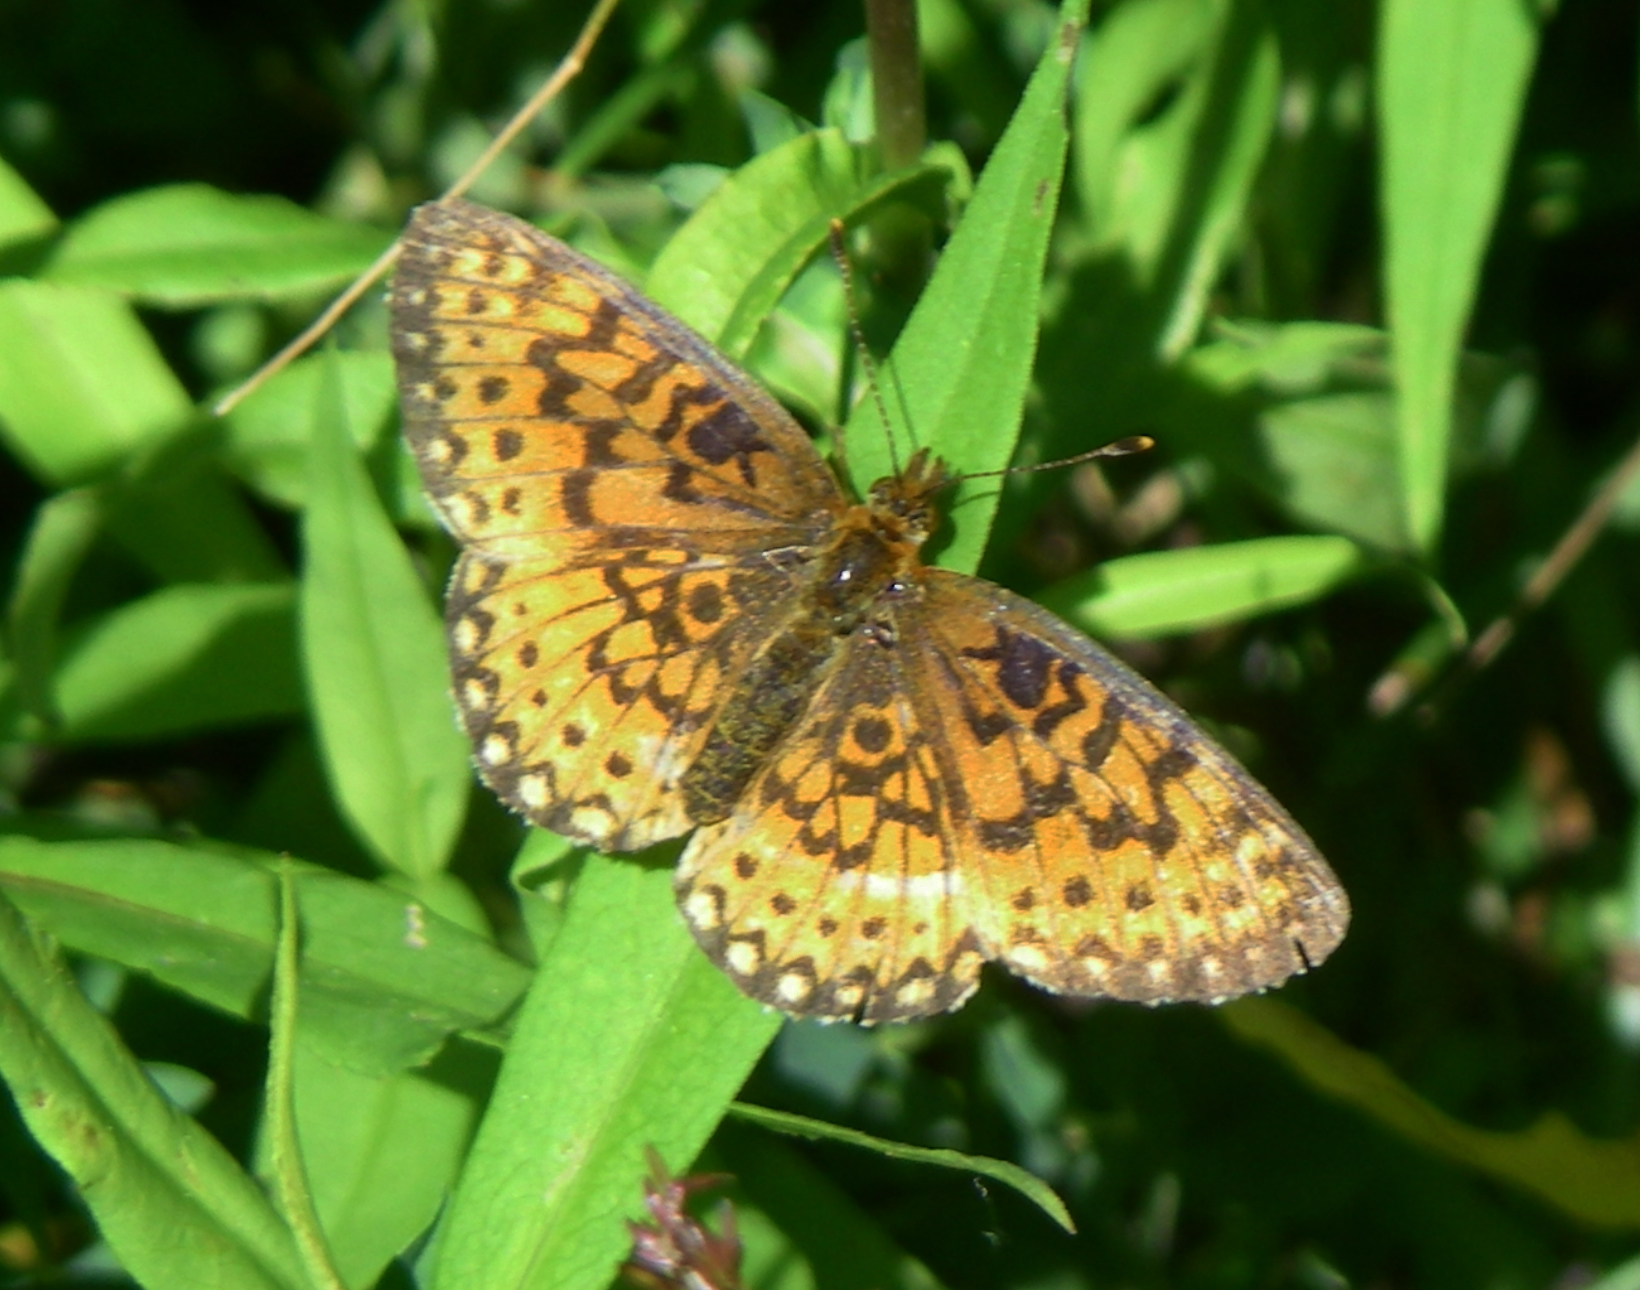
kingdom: Animalia
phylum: Arthropoda
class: Insecta
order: Lepidoptera
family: Nymphalidae
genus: Boloria
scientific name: Boloria
